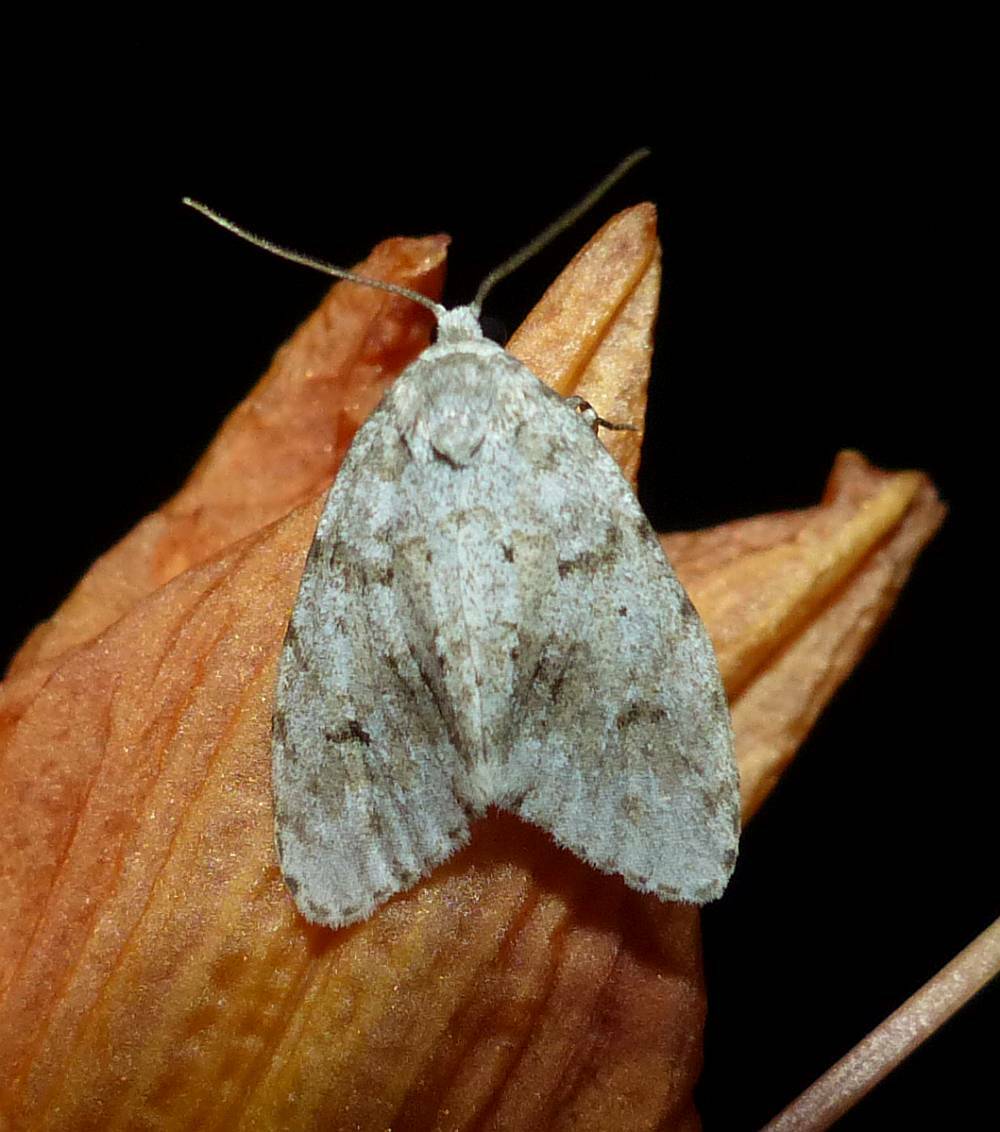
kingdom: Animalia
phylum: Arthropoda
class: Insecta
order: Lepidoptera
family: Erebidae
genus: Clemensia
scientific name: Clemensia albata
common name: Little white lichen moth
